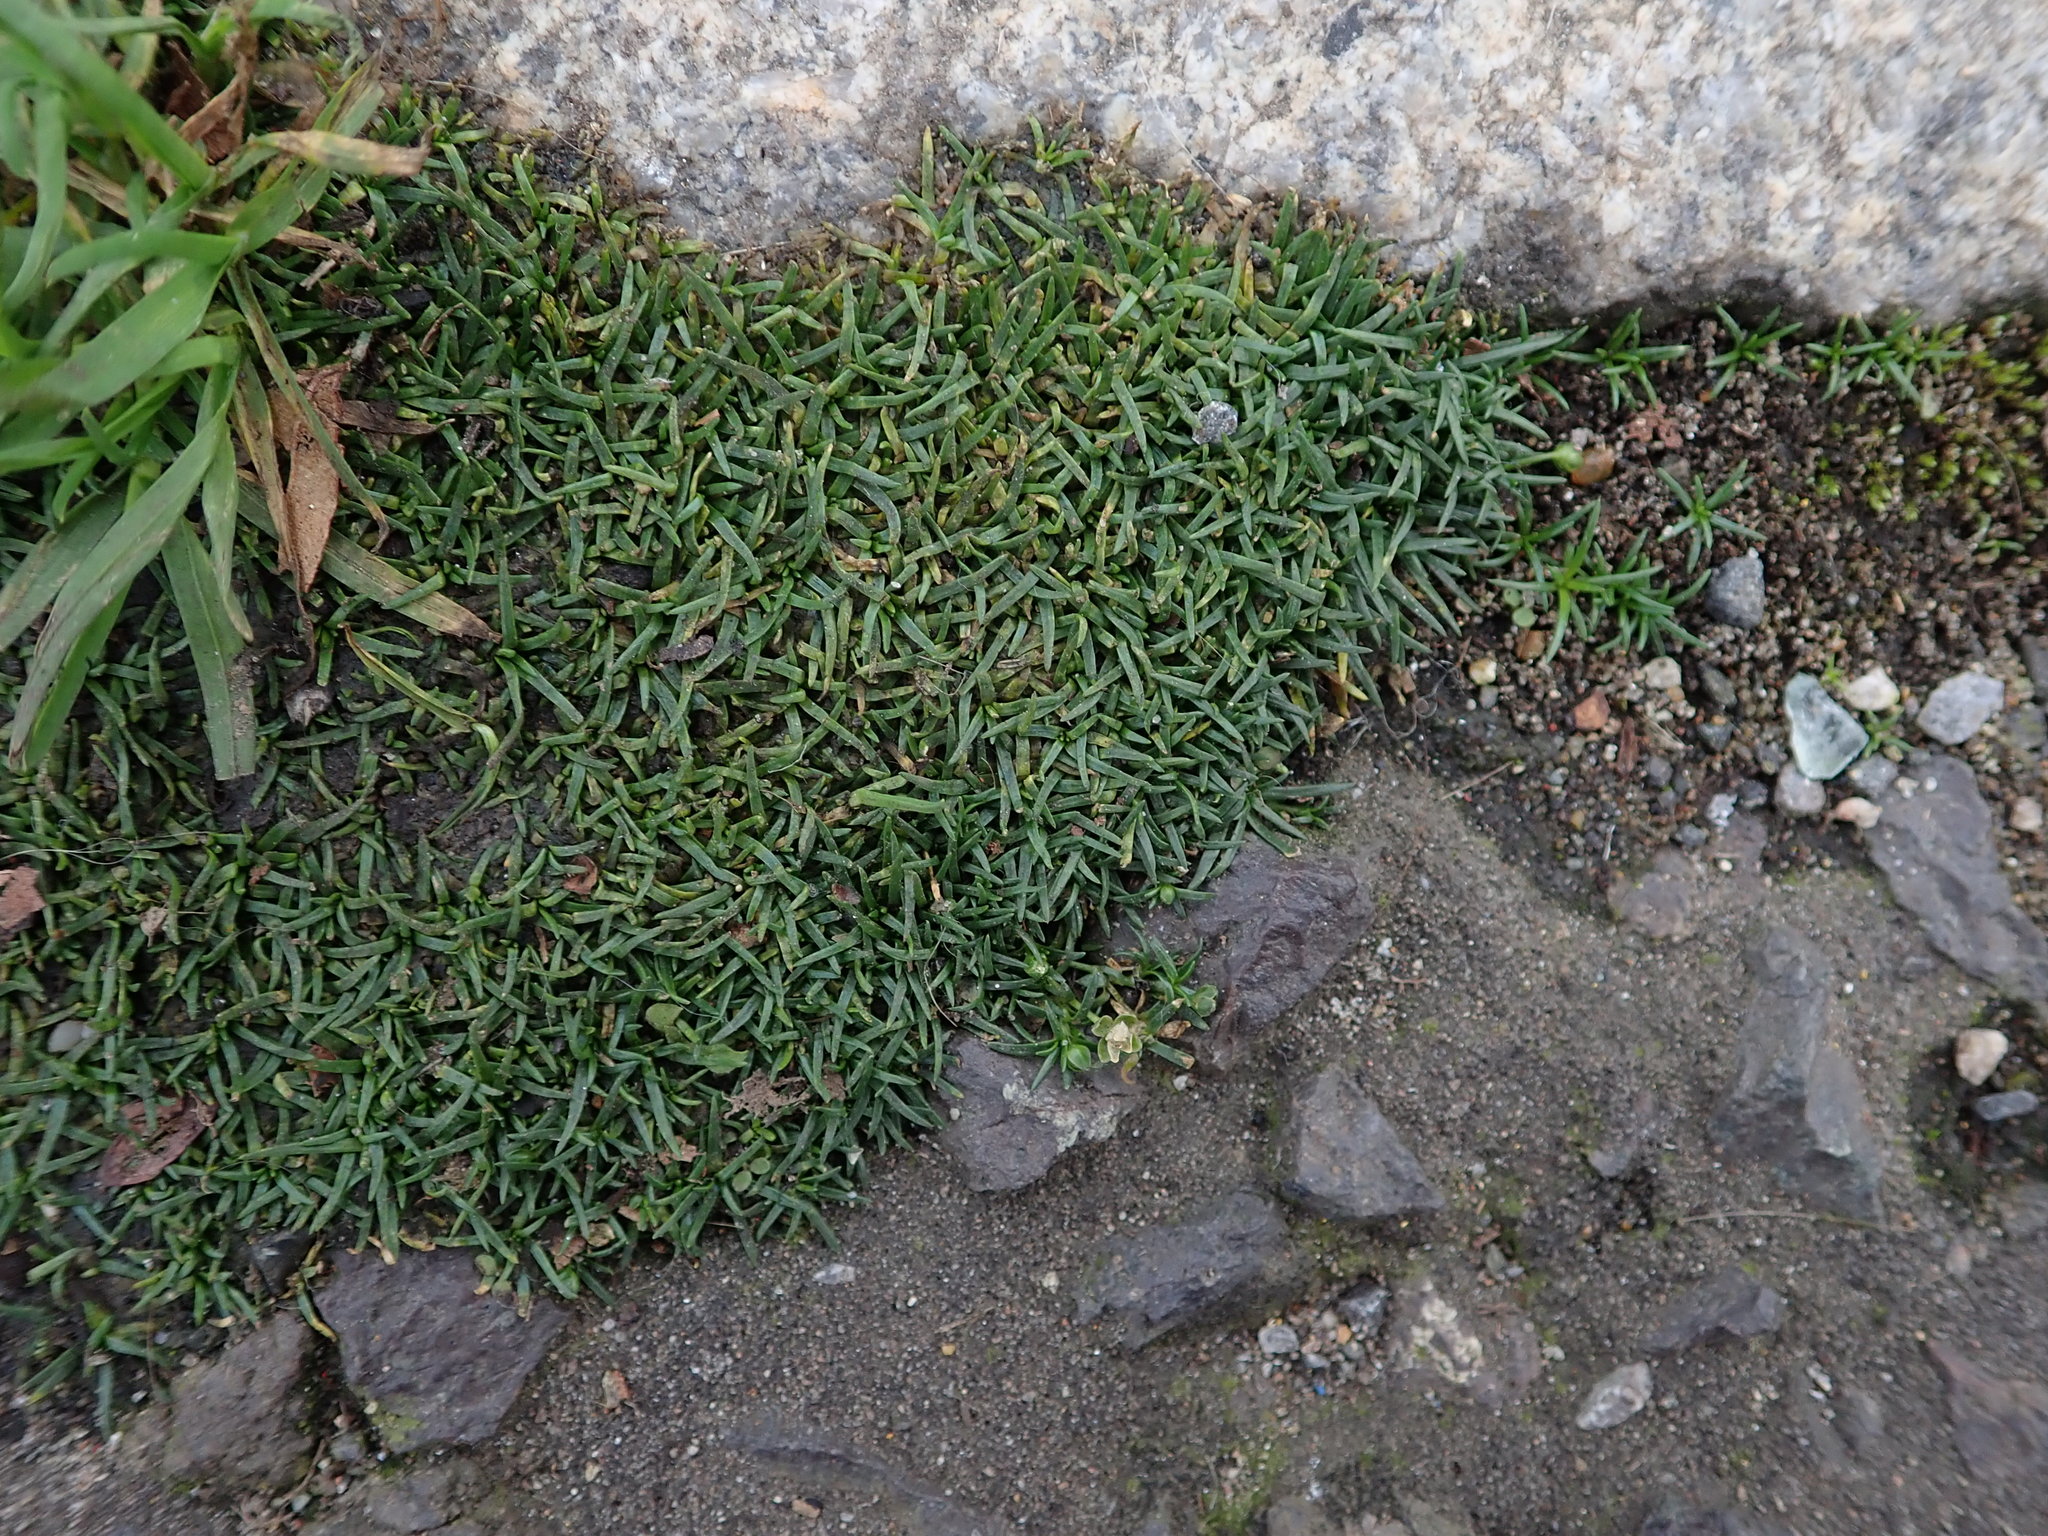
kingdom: Plantae
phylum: Tracheophyta
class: Magnoliopsida
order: Caryophyllales
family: Caryophyllaceae
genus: Sagina
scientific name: Sagina procumbens
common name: Procumbent pearlwort
